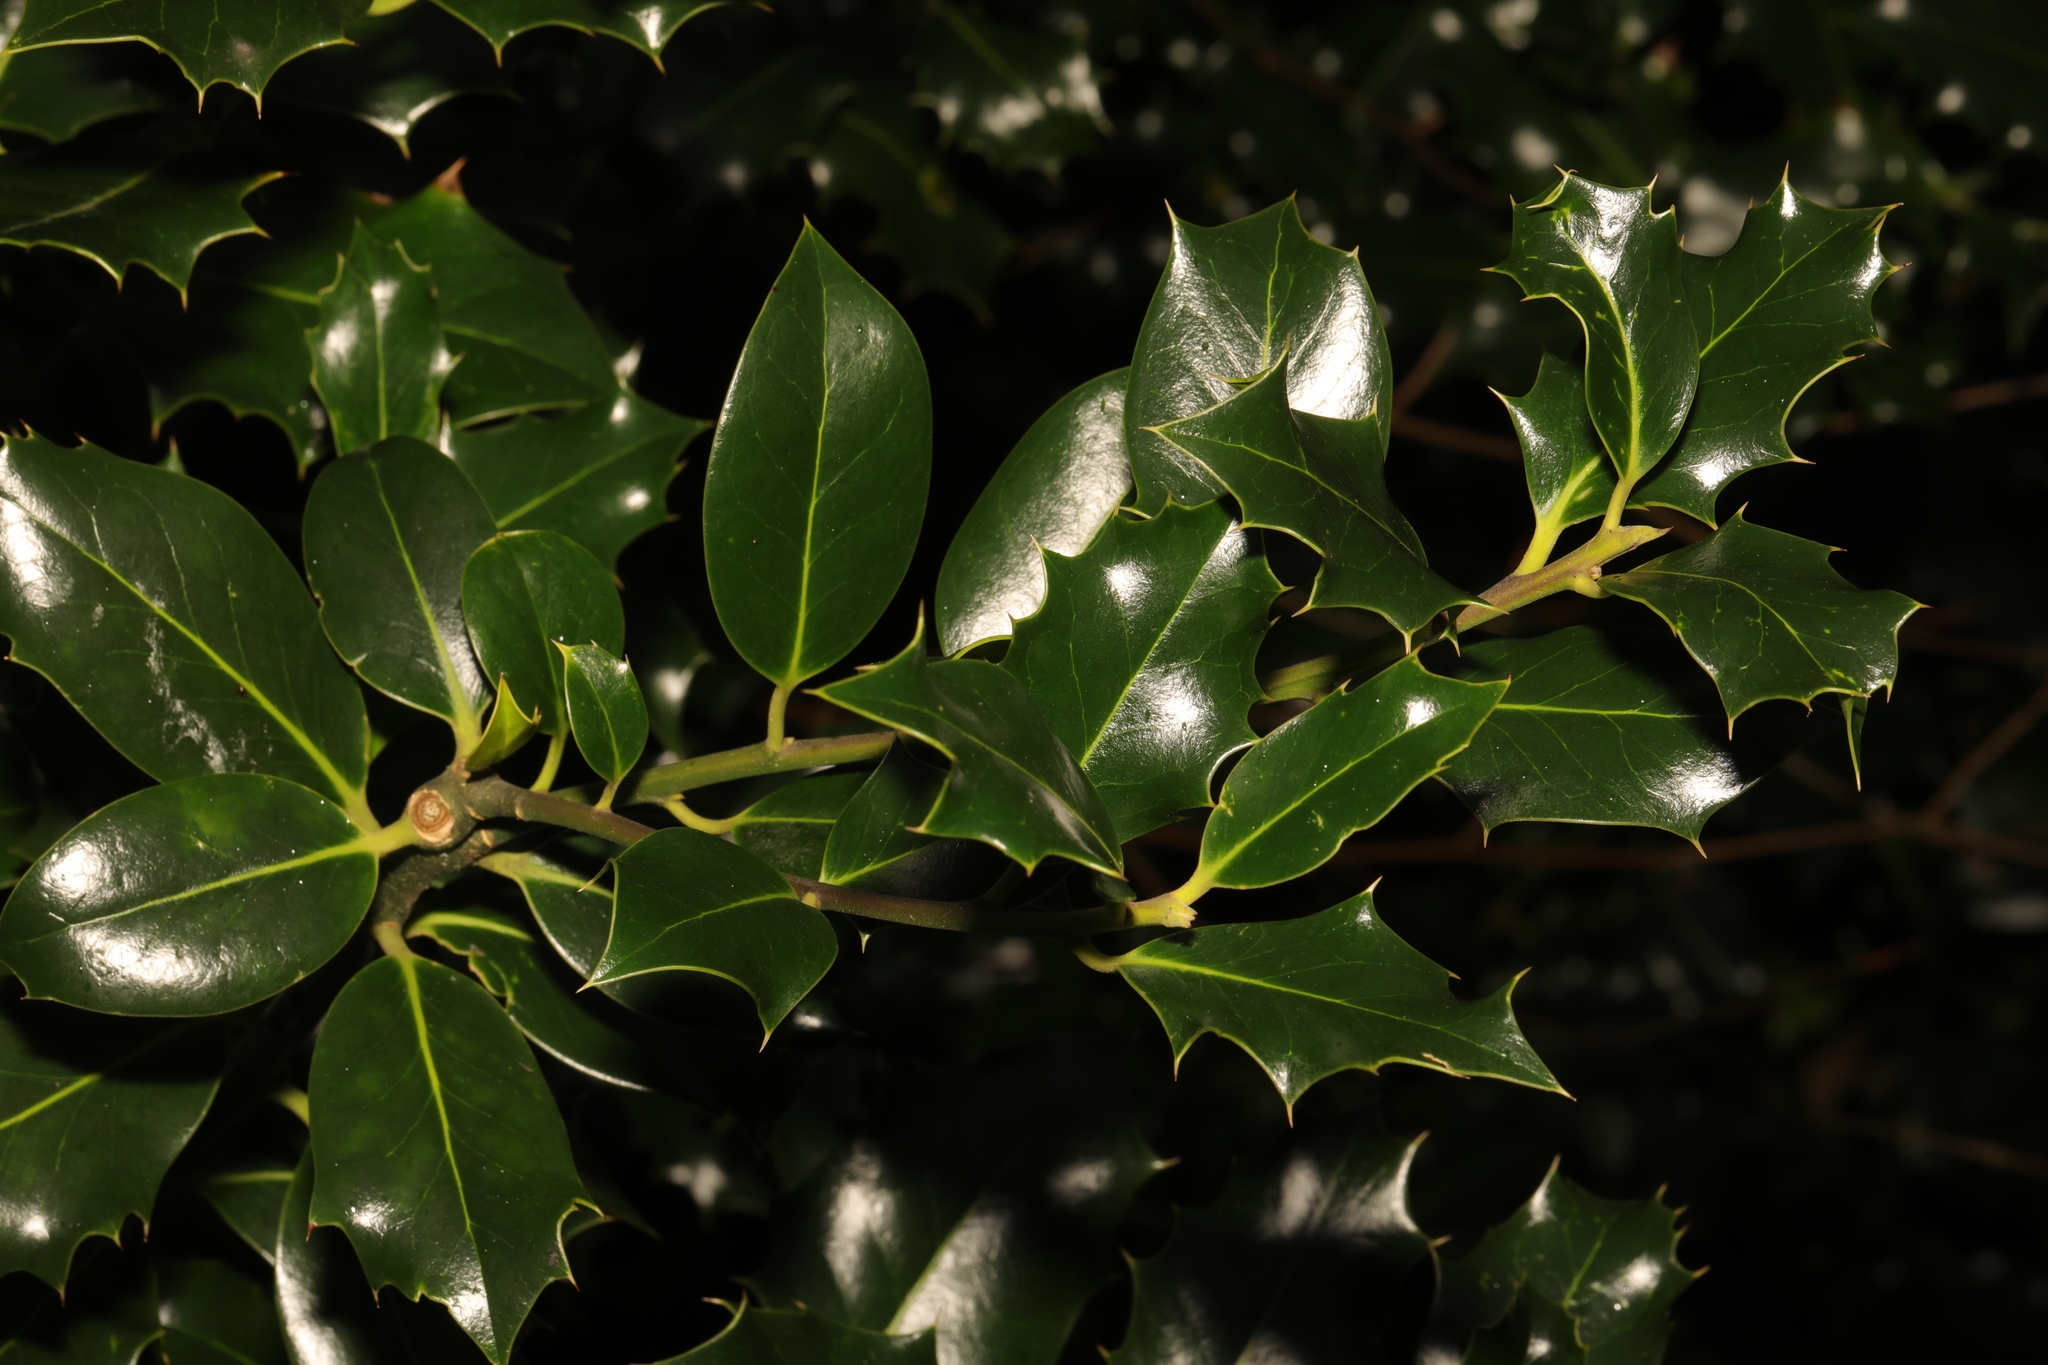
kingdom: Plantae
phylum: Tracheophyta
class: Magnoliopsida
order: Aquifoliales
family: Aquifoliaceae
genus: Ilex
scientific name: Ilex aquifolium
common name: English holly
